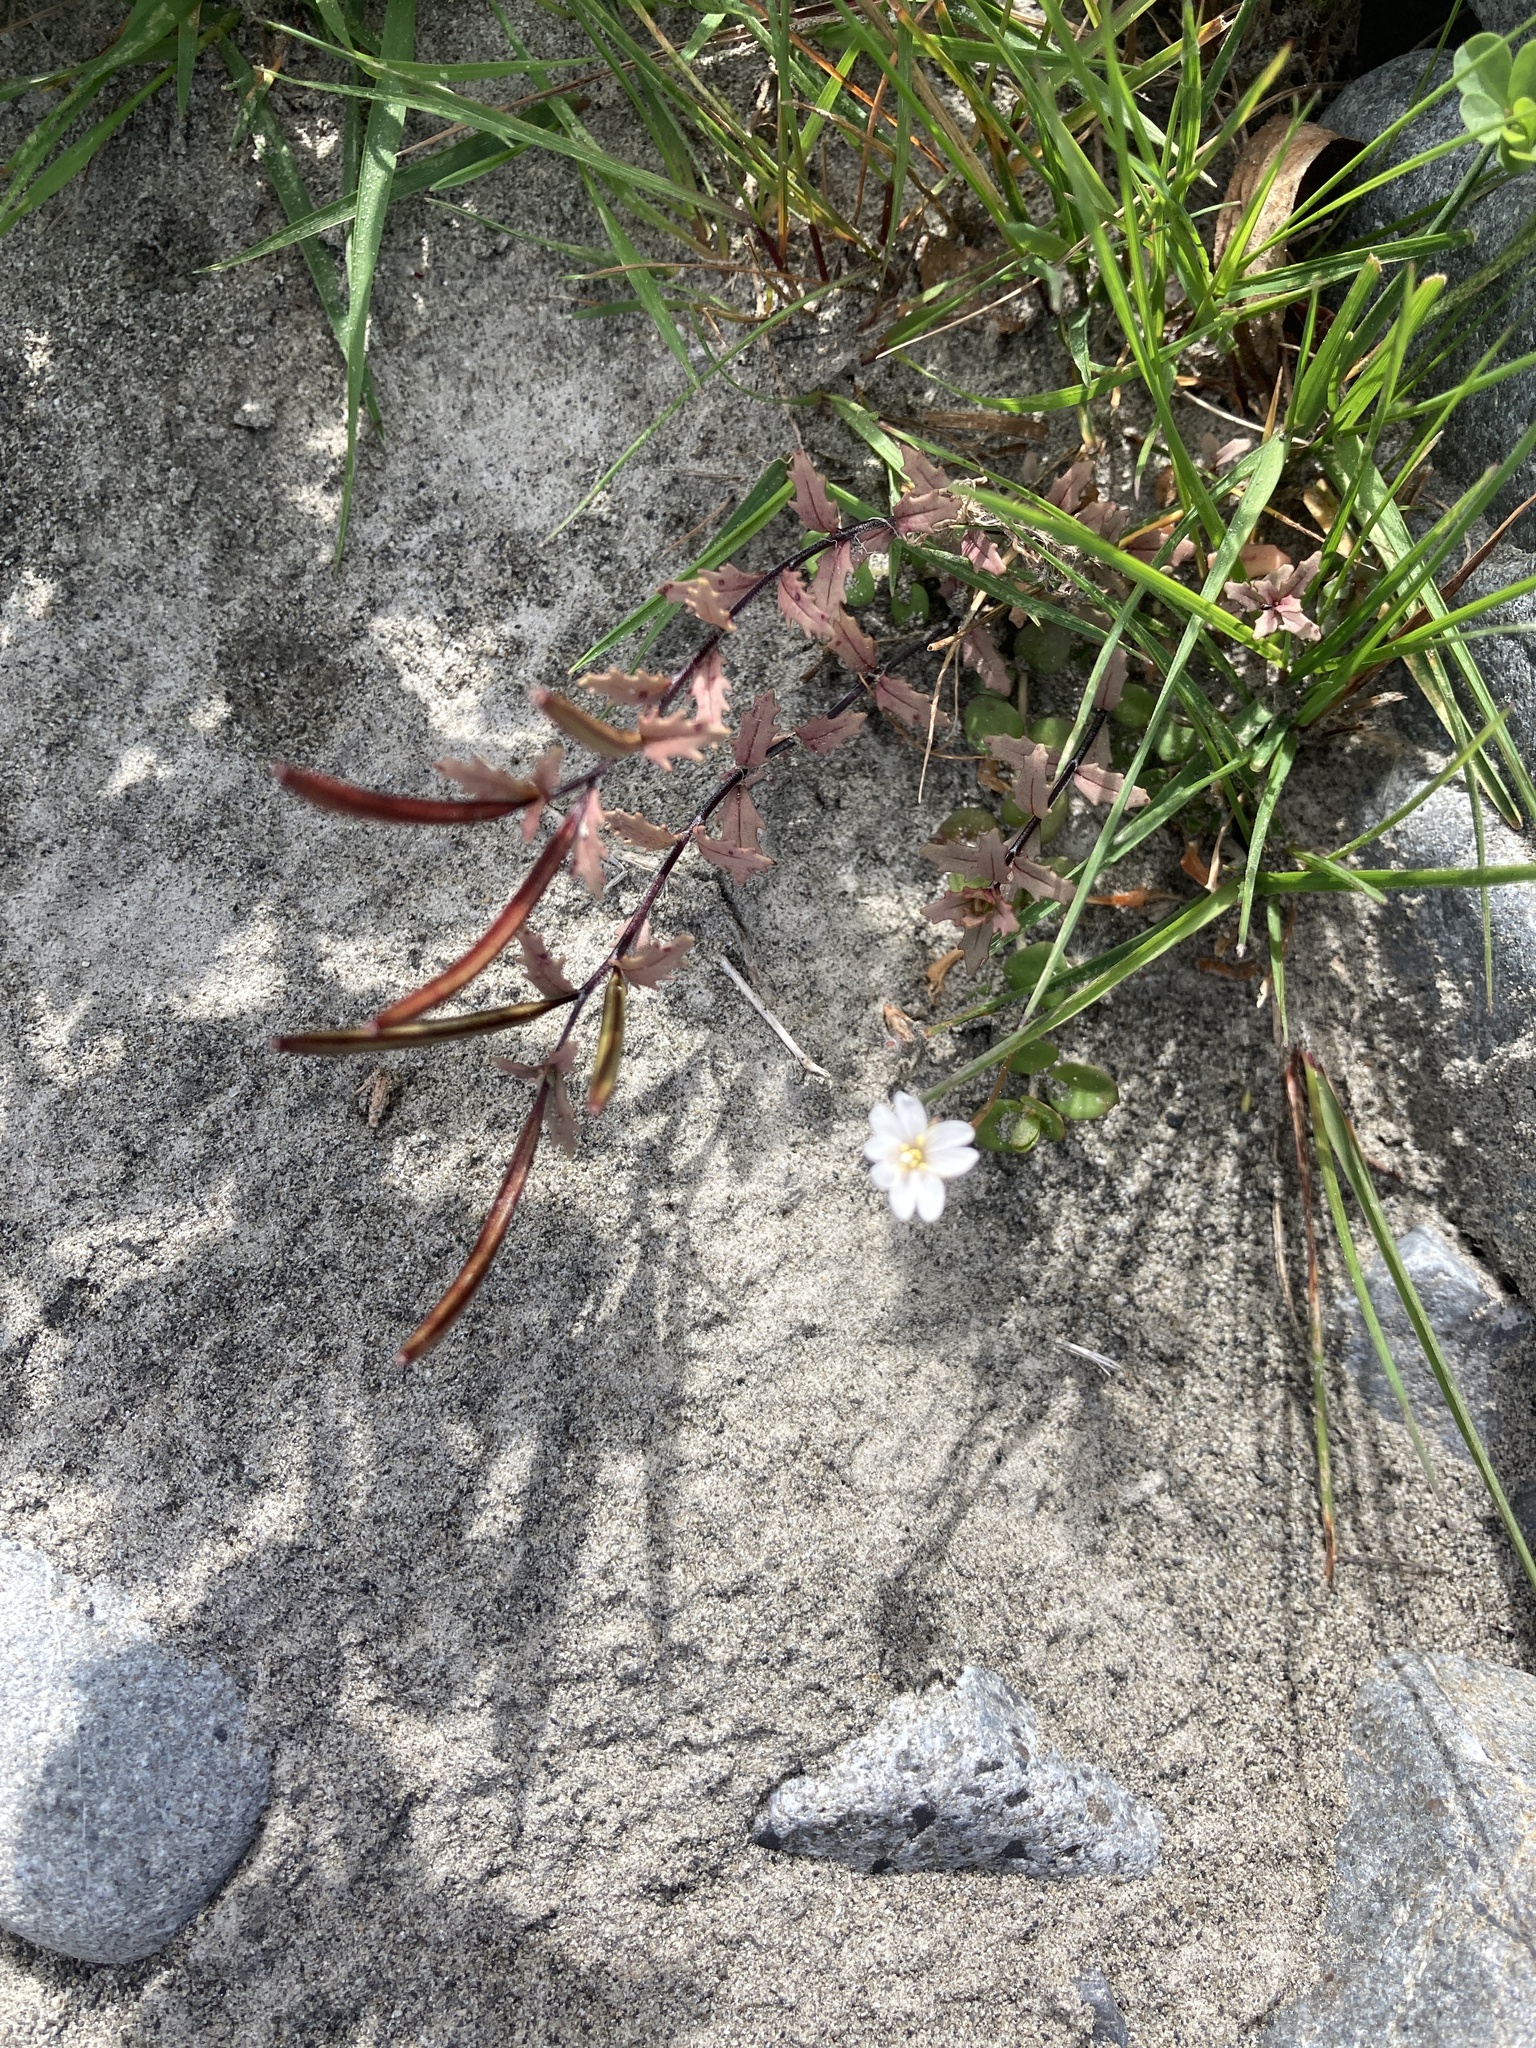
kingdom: Plantae
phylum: Tracheophyta
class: Magnoliopsida
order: Myrtales
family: Onagraceae
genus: Epilobium
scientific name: Epilobium melanocaulon
